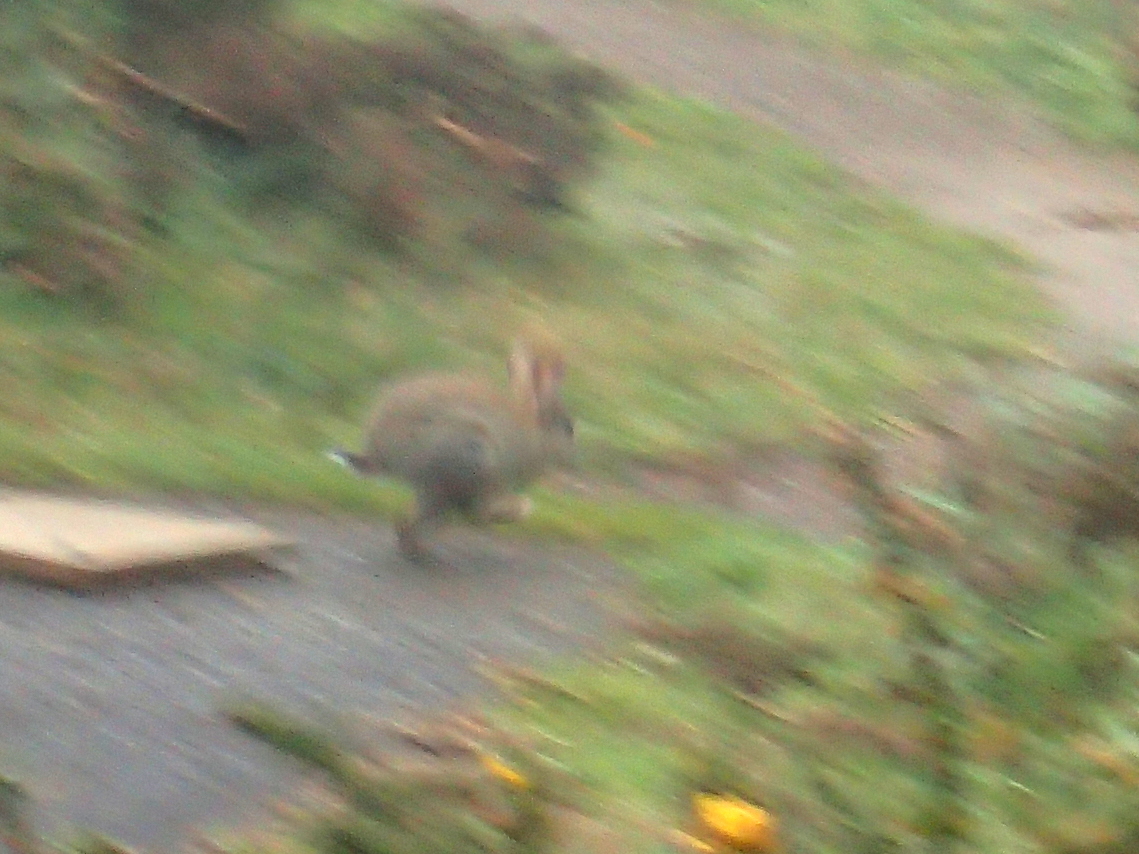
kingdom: Animalia
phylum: Chordata
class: Mammalia
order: Lagomorpha
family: Leporidae
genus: Oryctolagus
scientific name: Oryctolagus cuniculus
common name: European rabbit
